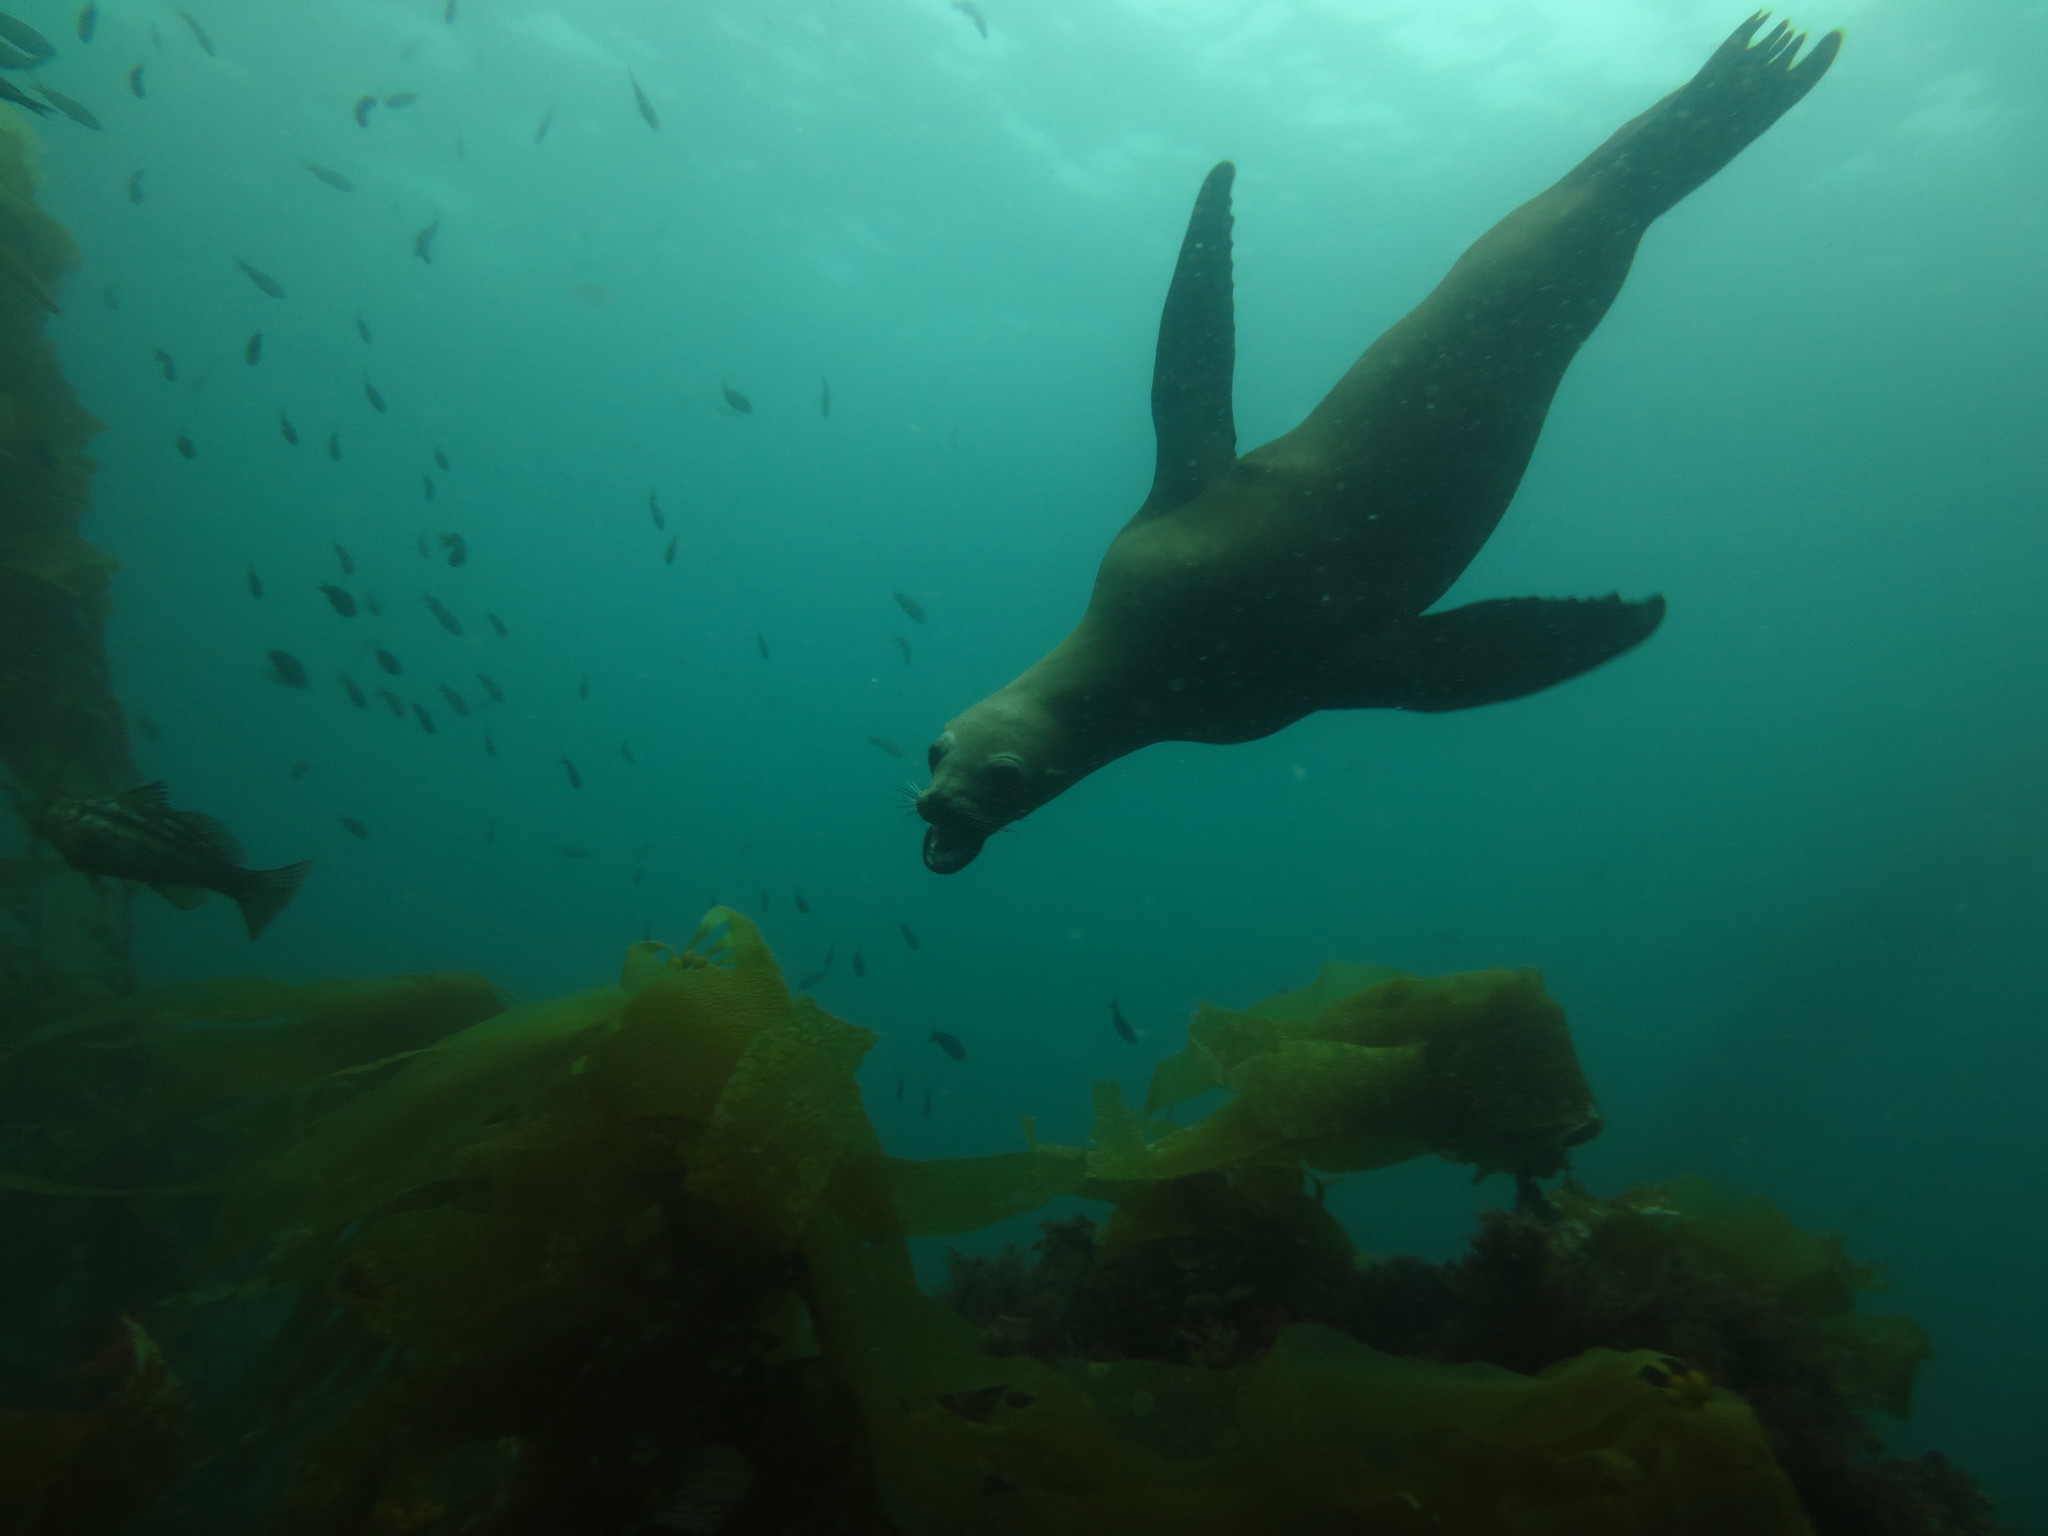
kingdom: Animalia
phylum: Chordata
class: Mammalia
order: Carnivora
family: Otariidae
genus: Zalophus
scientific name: Zalophus californianus
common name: California sea lion
